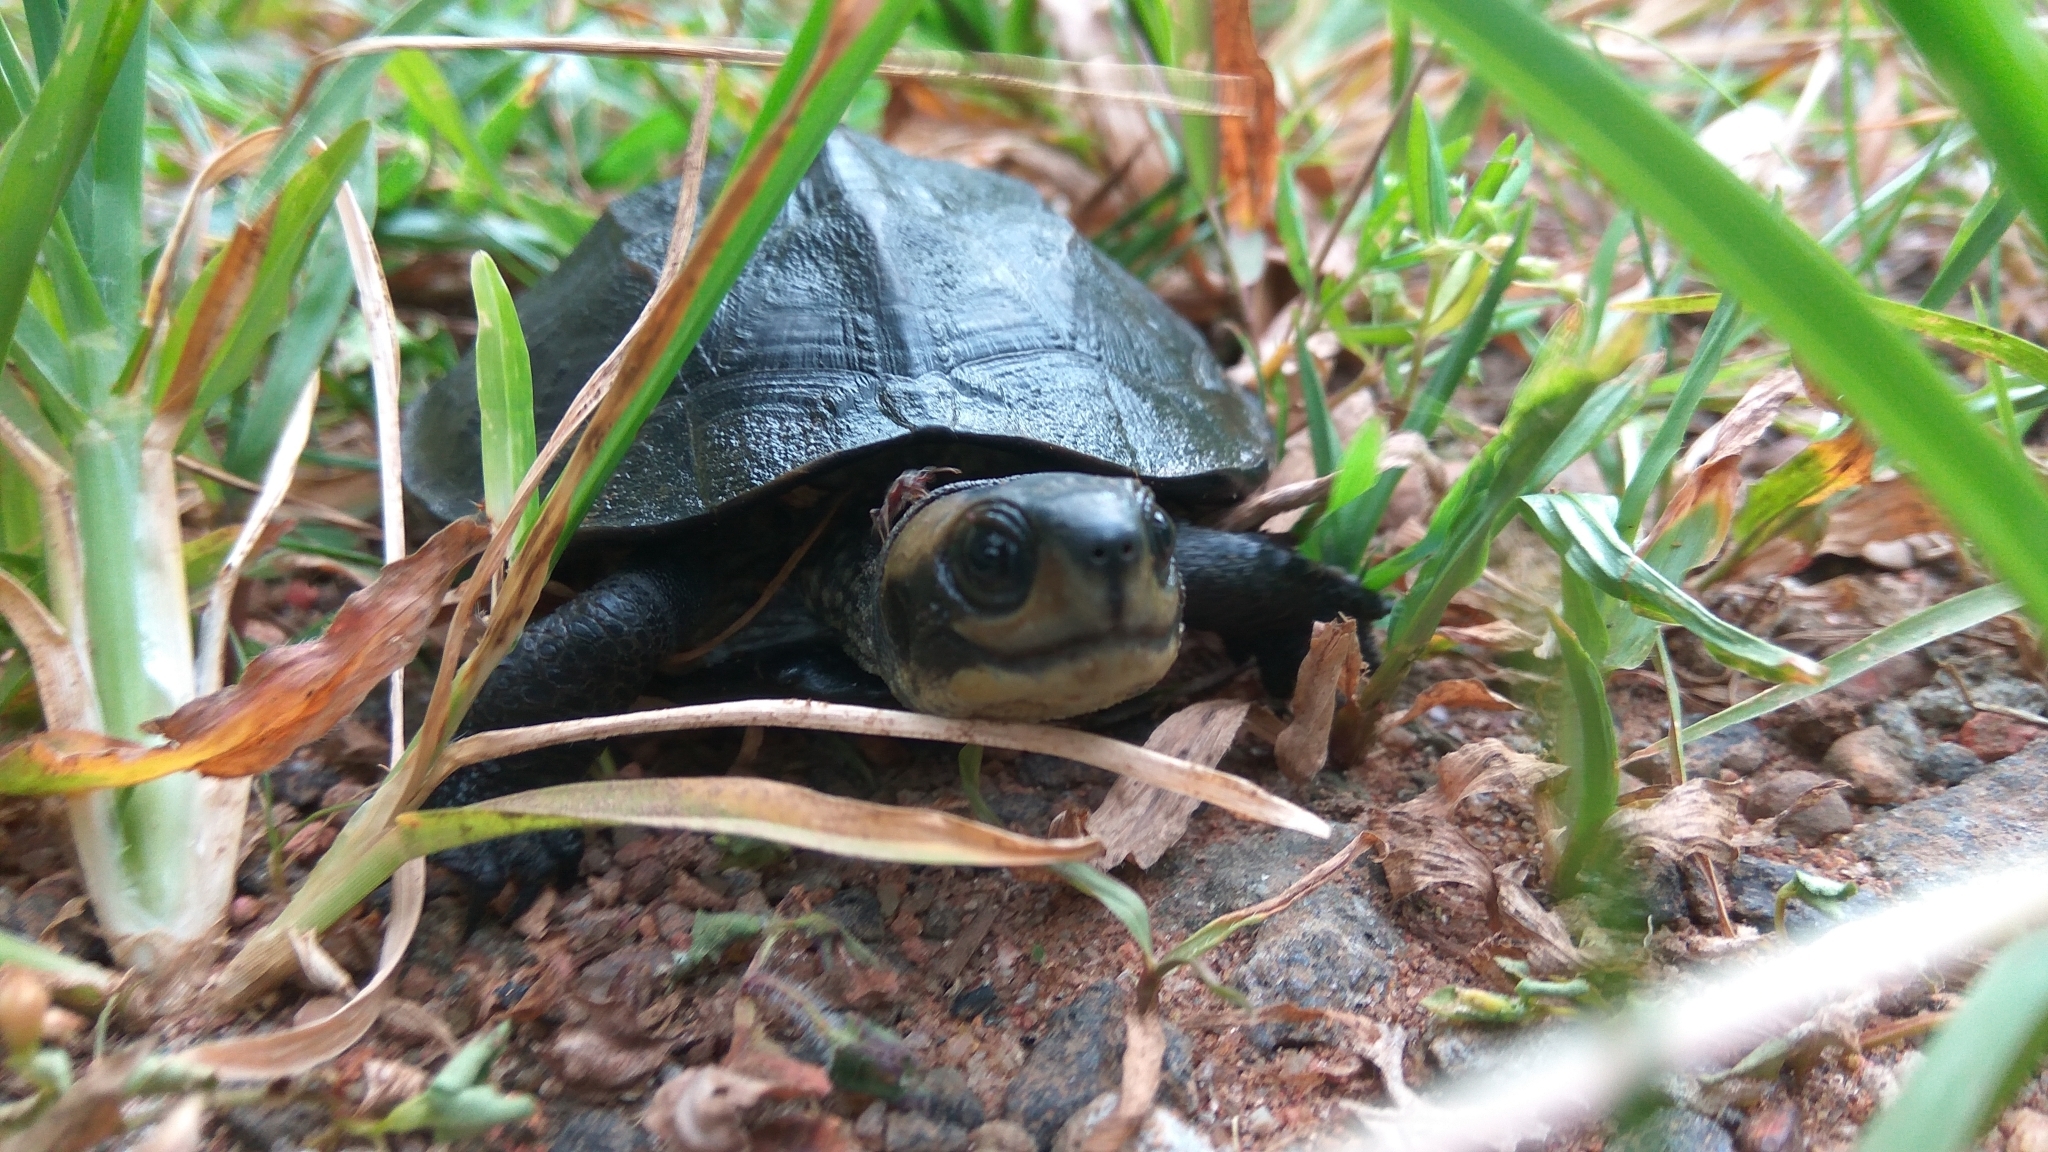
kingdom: Animalia
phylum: Chordata
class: Testudines
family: Geoemydidae
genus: Melanochelys
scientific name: Melanochelys trijuga
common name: Indian black turtle
